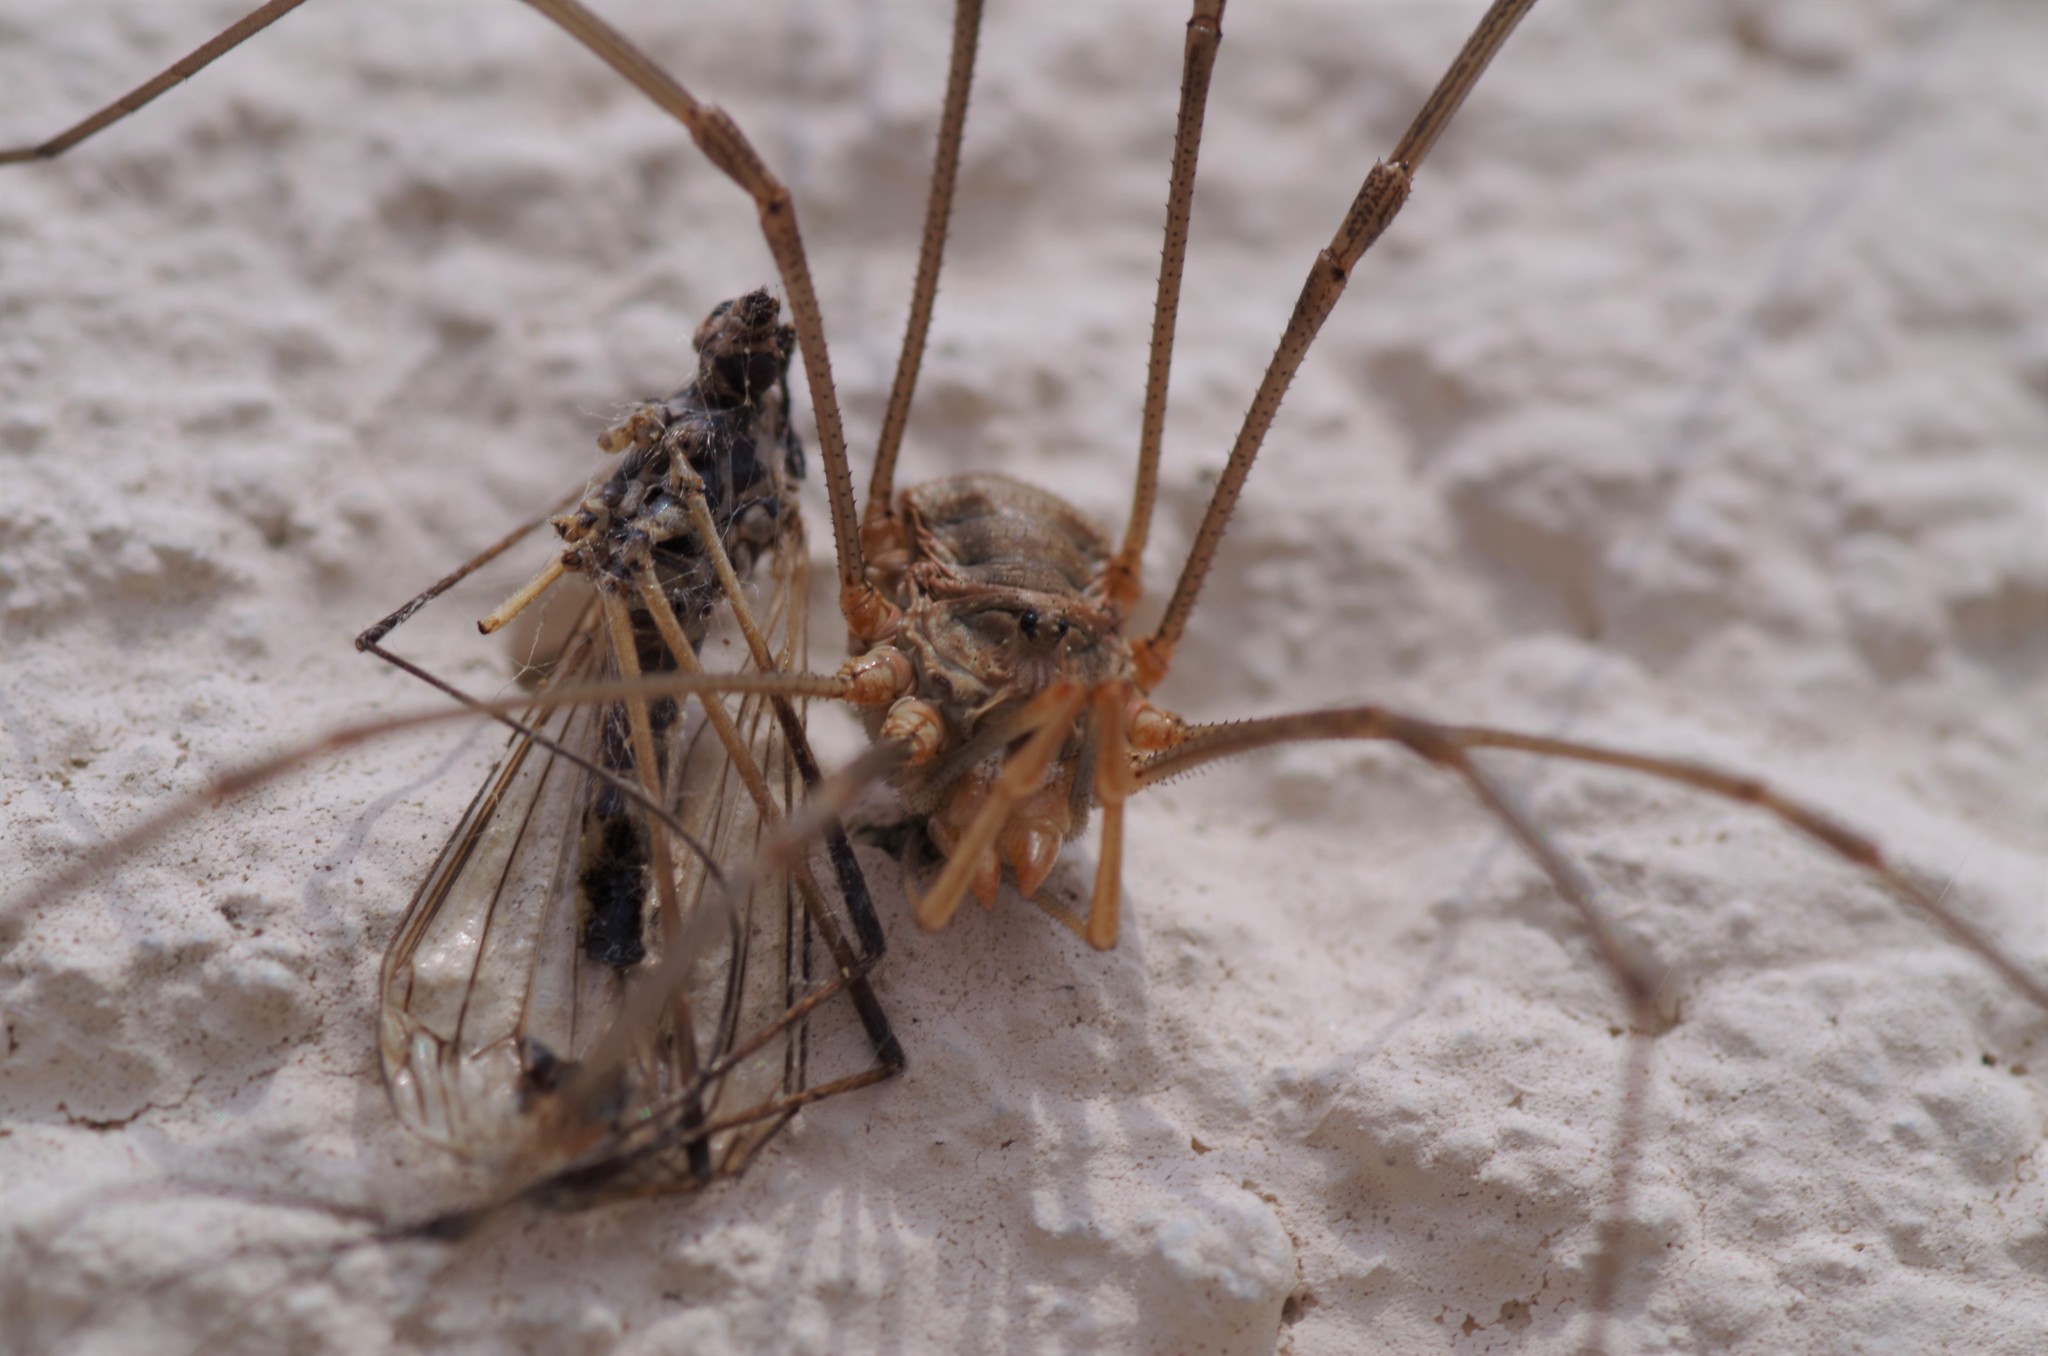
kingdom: Animalia
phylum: Arthropoda
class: Arachnida
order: Opiliones
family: Phalangiidae
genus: Phalangium
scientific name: Phalangium opilio
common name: Daddy longleg
